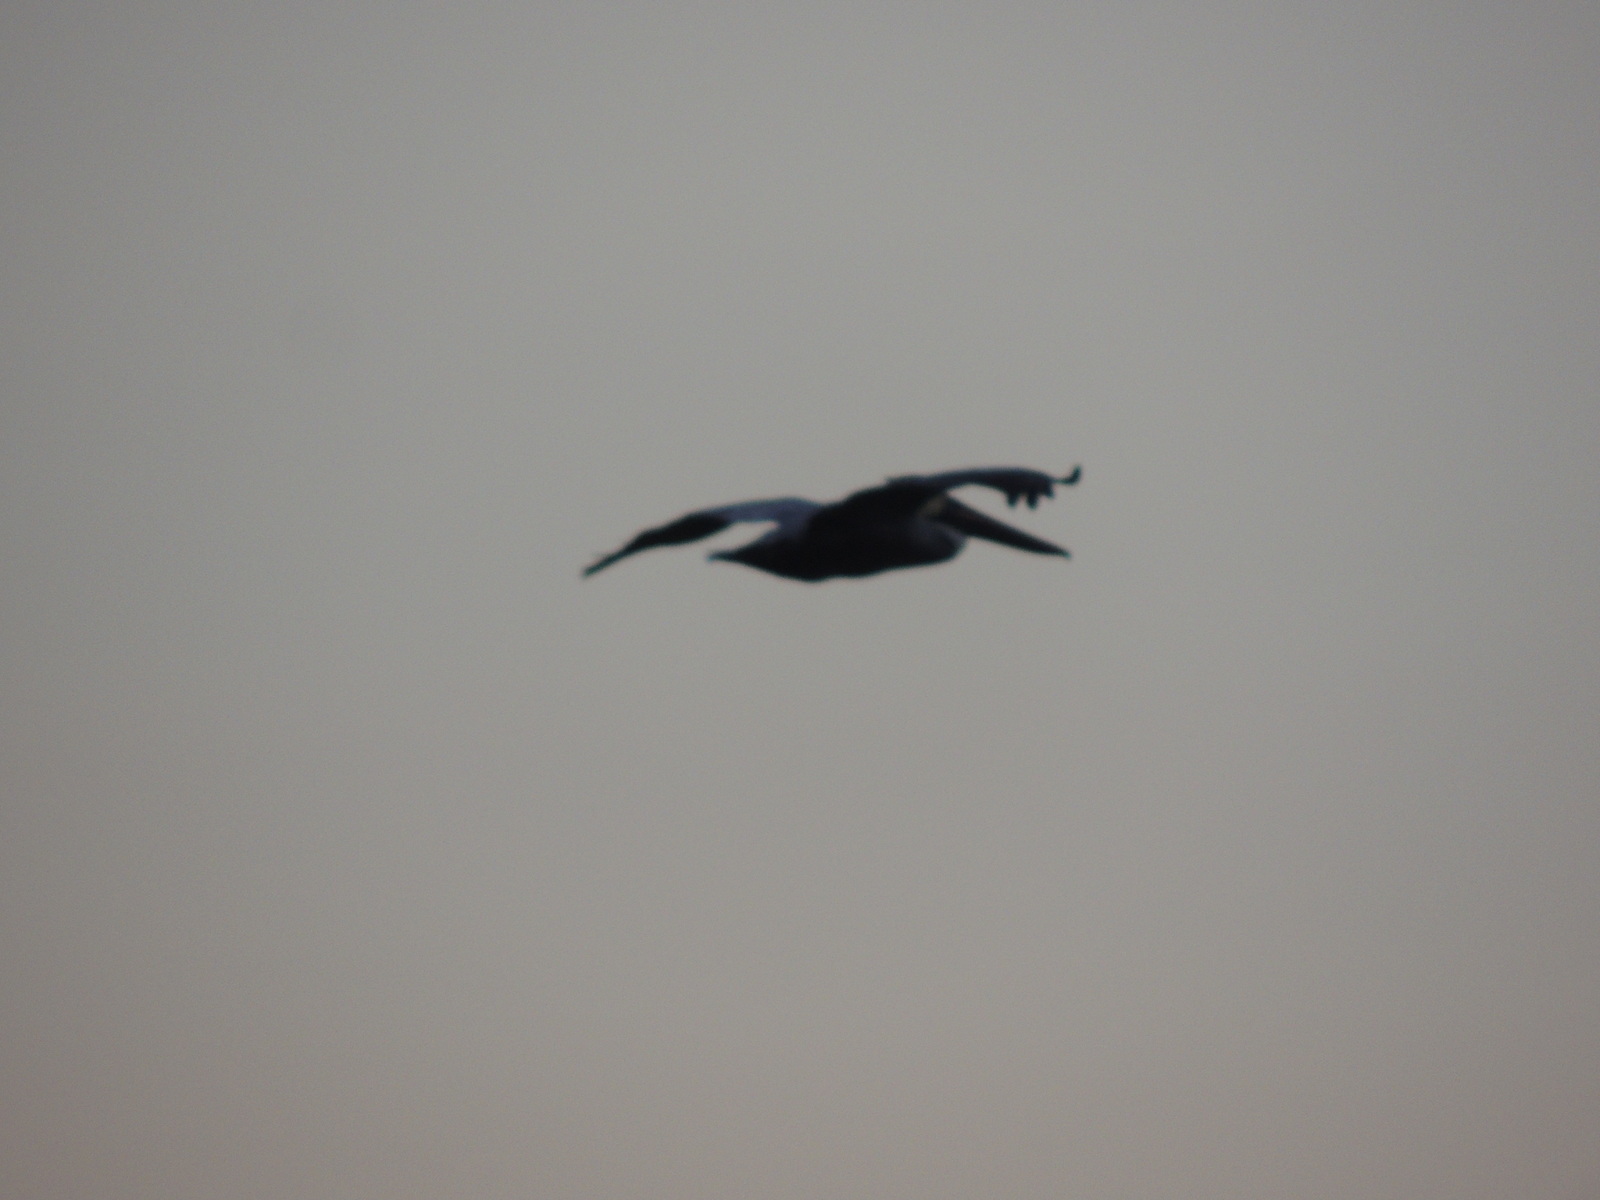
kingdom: Animalia
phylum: Chordata
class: Aves
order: Pelecaniformes
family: Pelecanidae
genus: Pelecanus
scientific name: Pelecanus occidentalis
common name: Brown pelican
